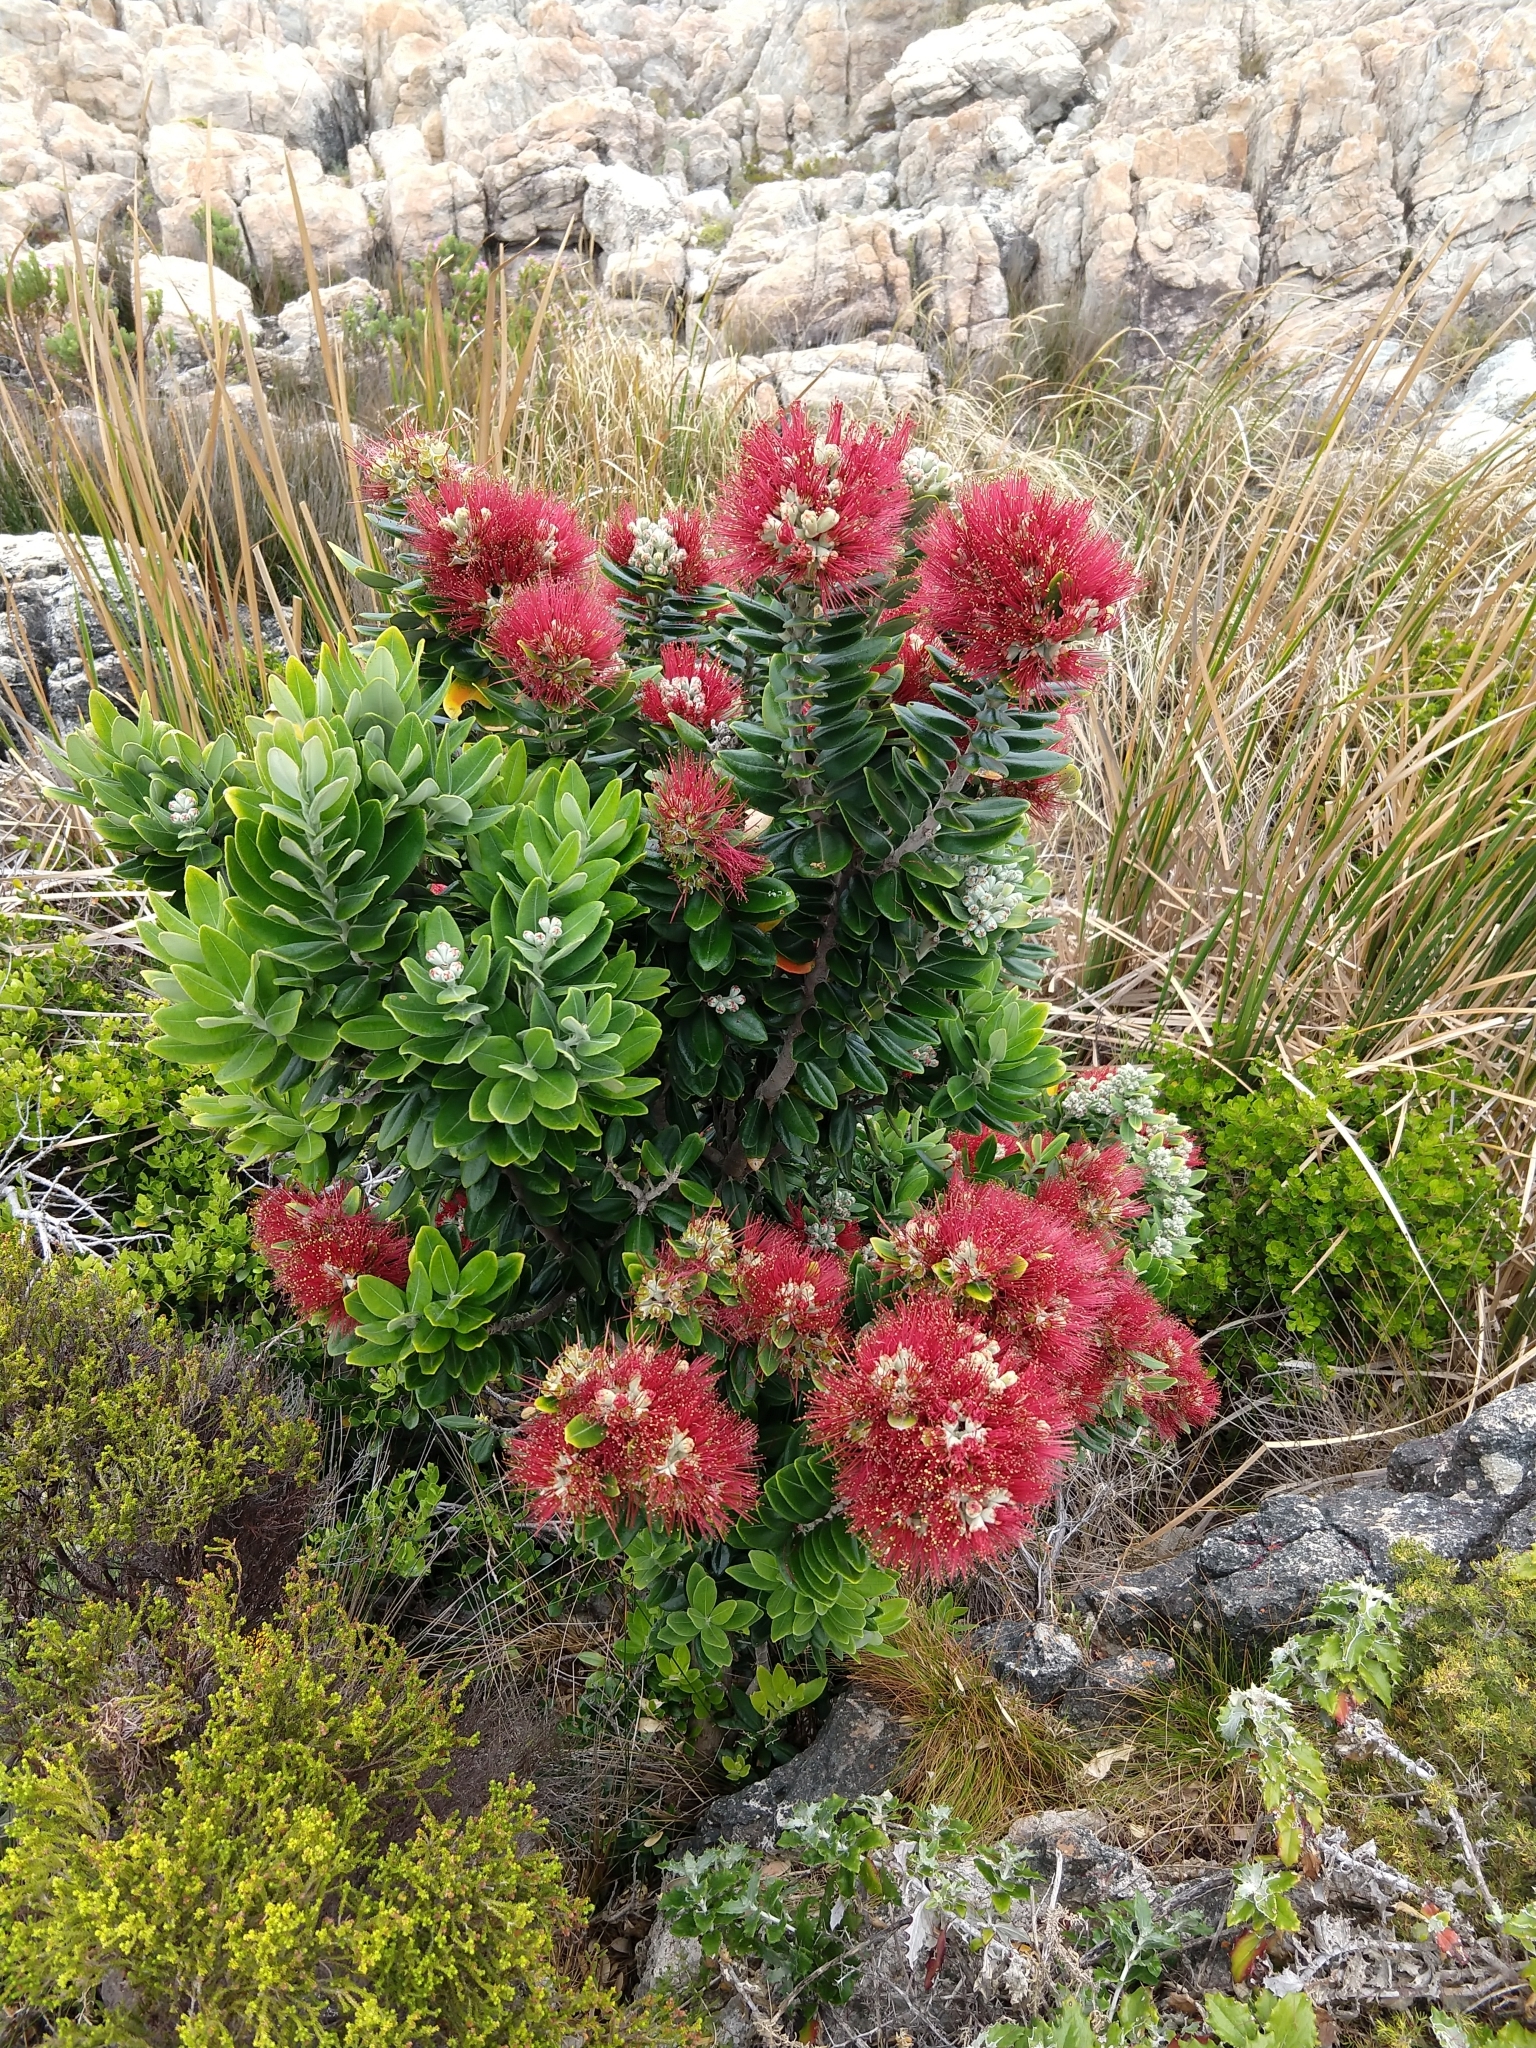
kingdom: Plantae
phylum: Tracheophyta
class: Magnoliopsida
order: Myrtales
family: Myrtaceae
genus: Metrosideros
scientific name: Metrosideros excelsa
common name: New zealand christmastree
